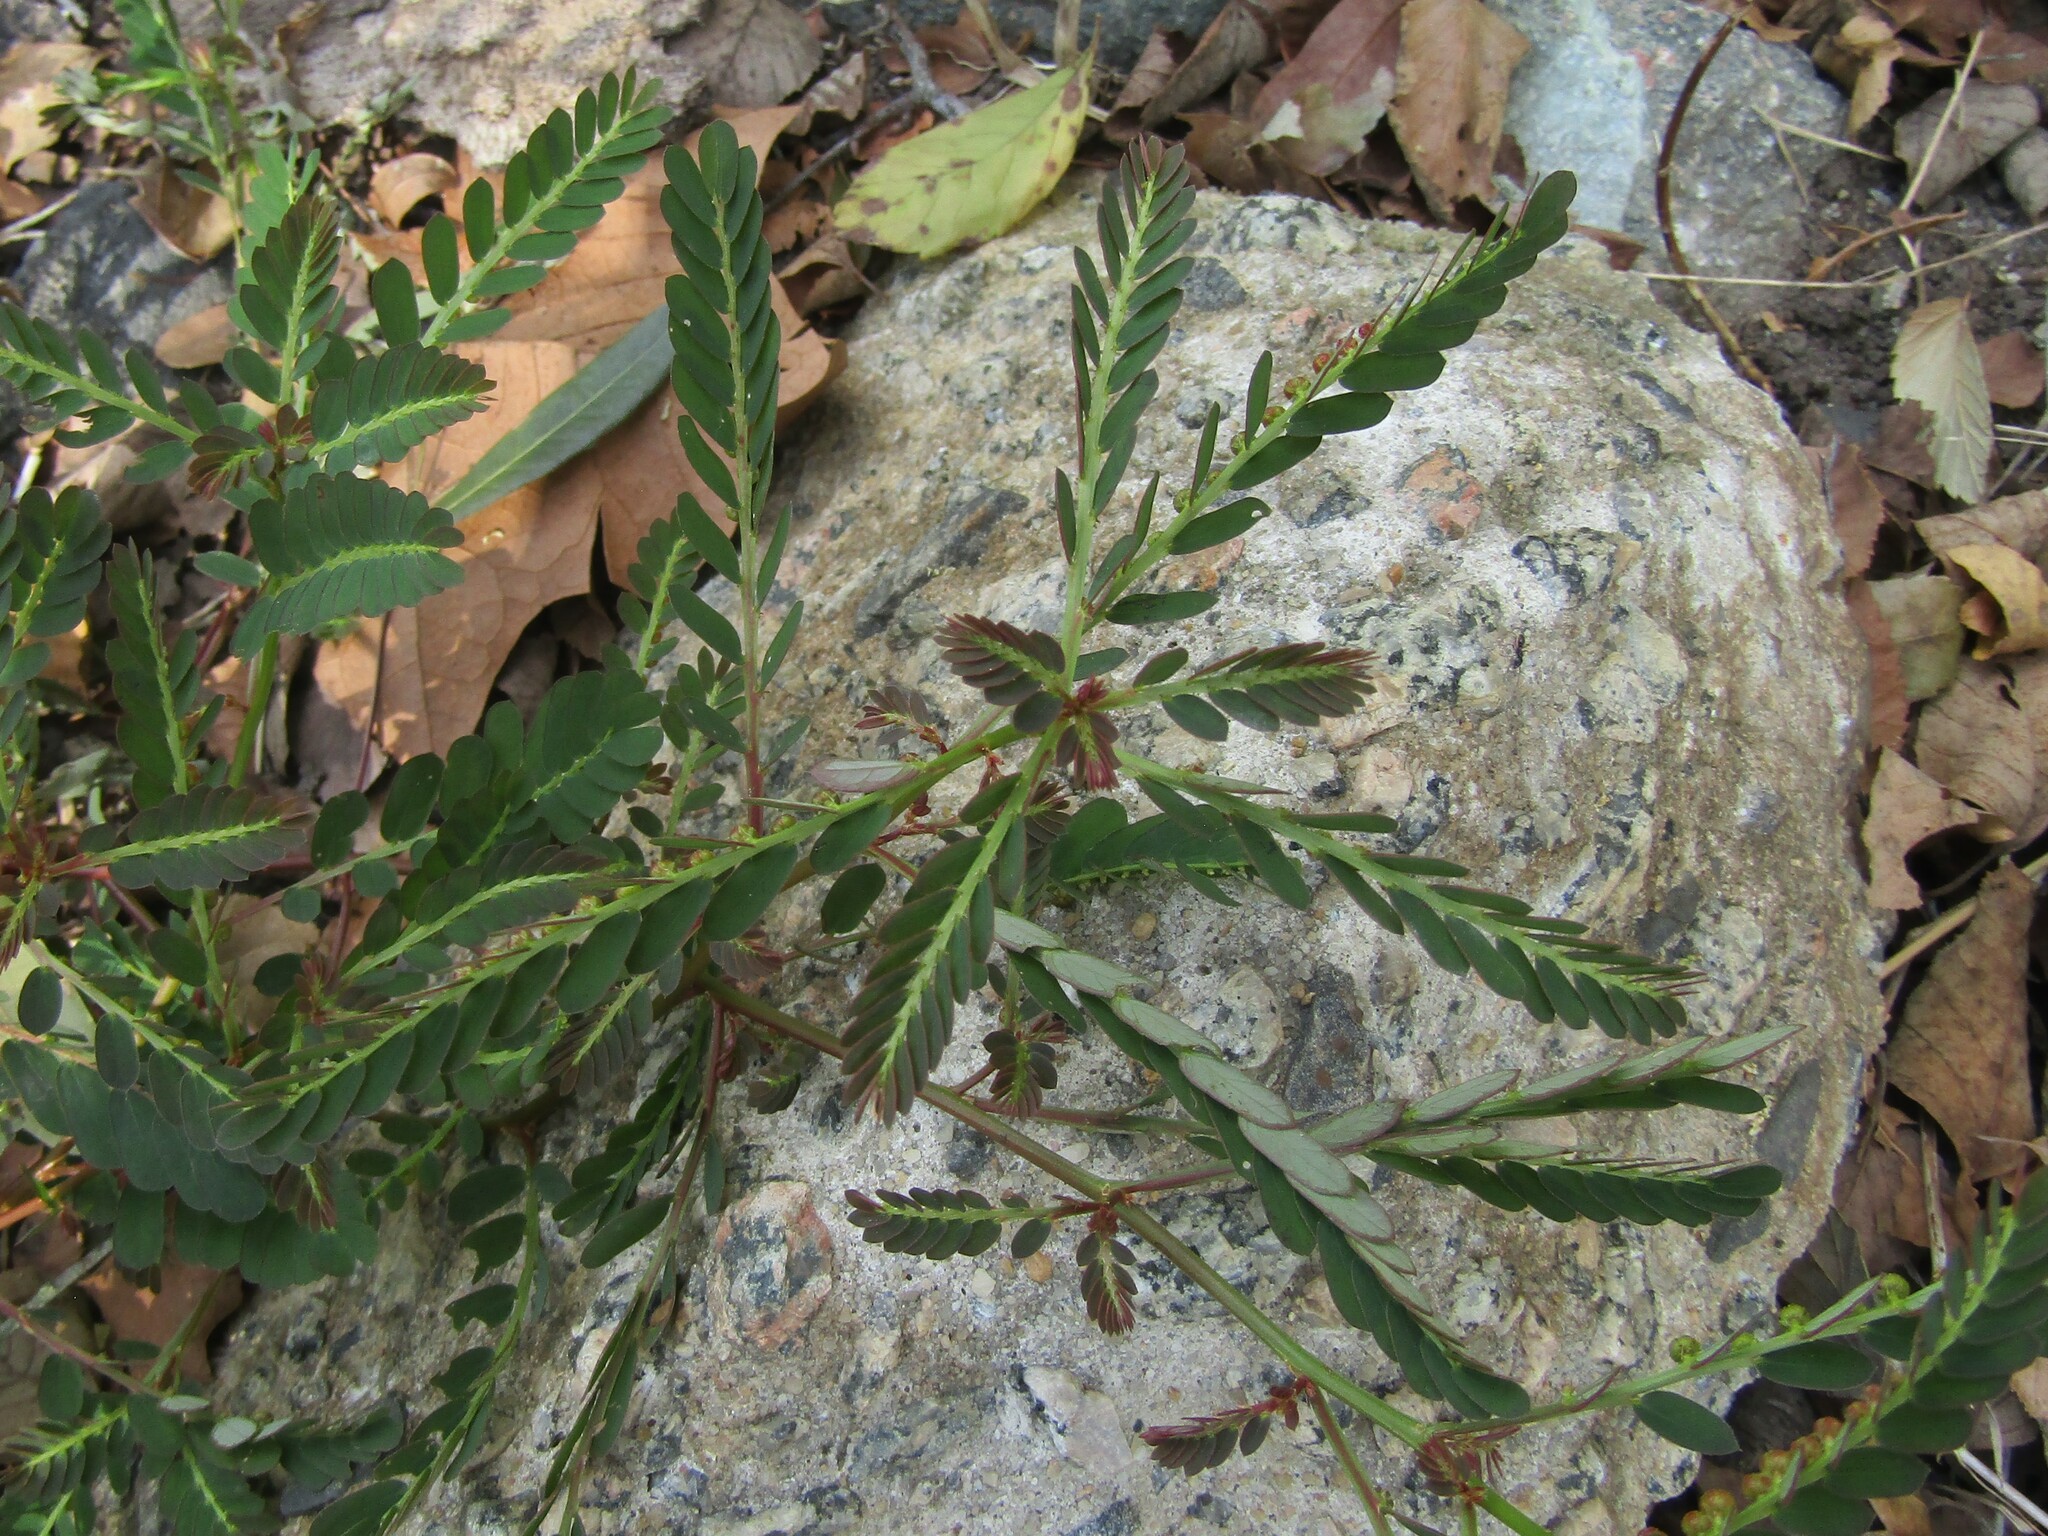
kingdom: Plantae
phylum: Tracheophyta
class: Magnoliopsida
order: Malpighiales
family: Phyllanthaceae
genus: Phyllanthus
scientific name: Phyllanthus urinaria
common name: Chamber bitter
